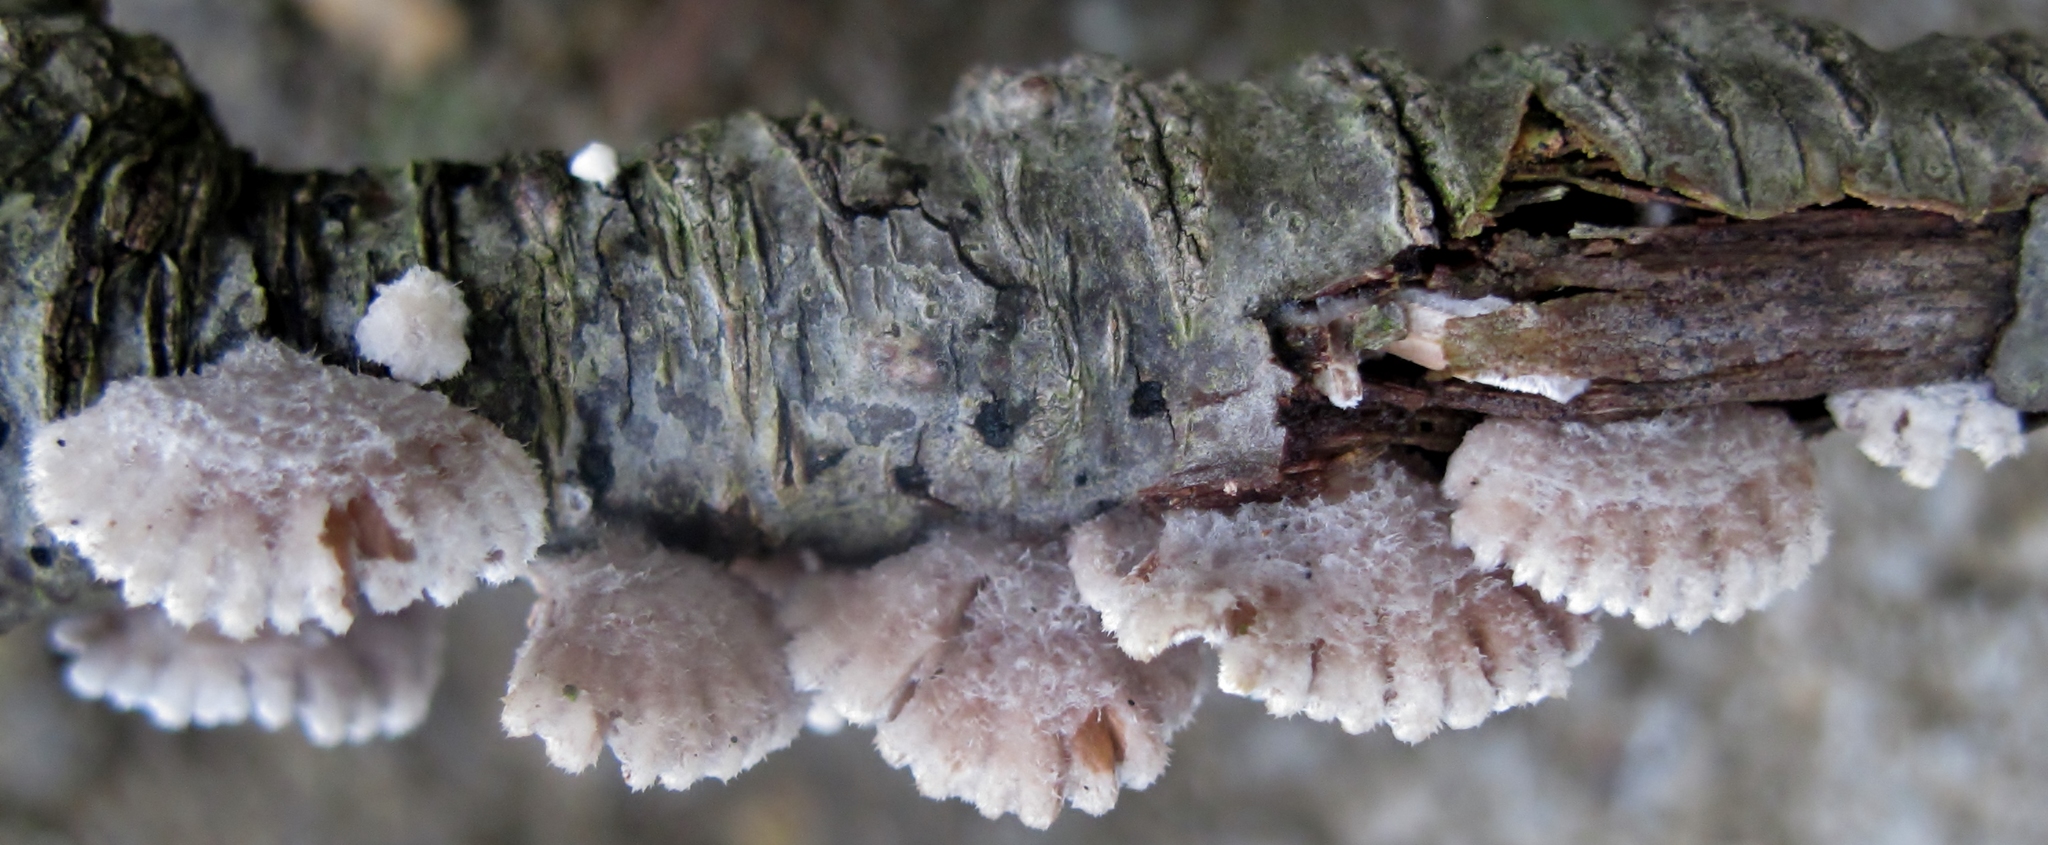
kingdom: Fungi
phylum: Basidiomycota
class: Agaricomycetes
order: Agaricales
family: Schizophyllaceae
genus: Schizophyllum
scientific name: Schizophyllum commune
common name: Common porecrust
